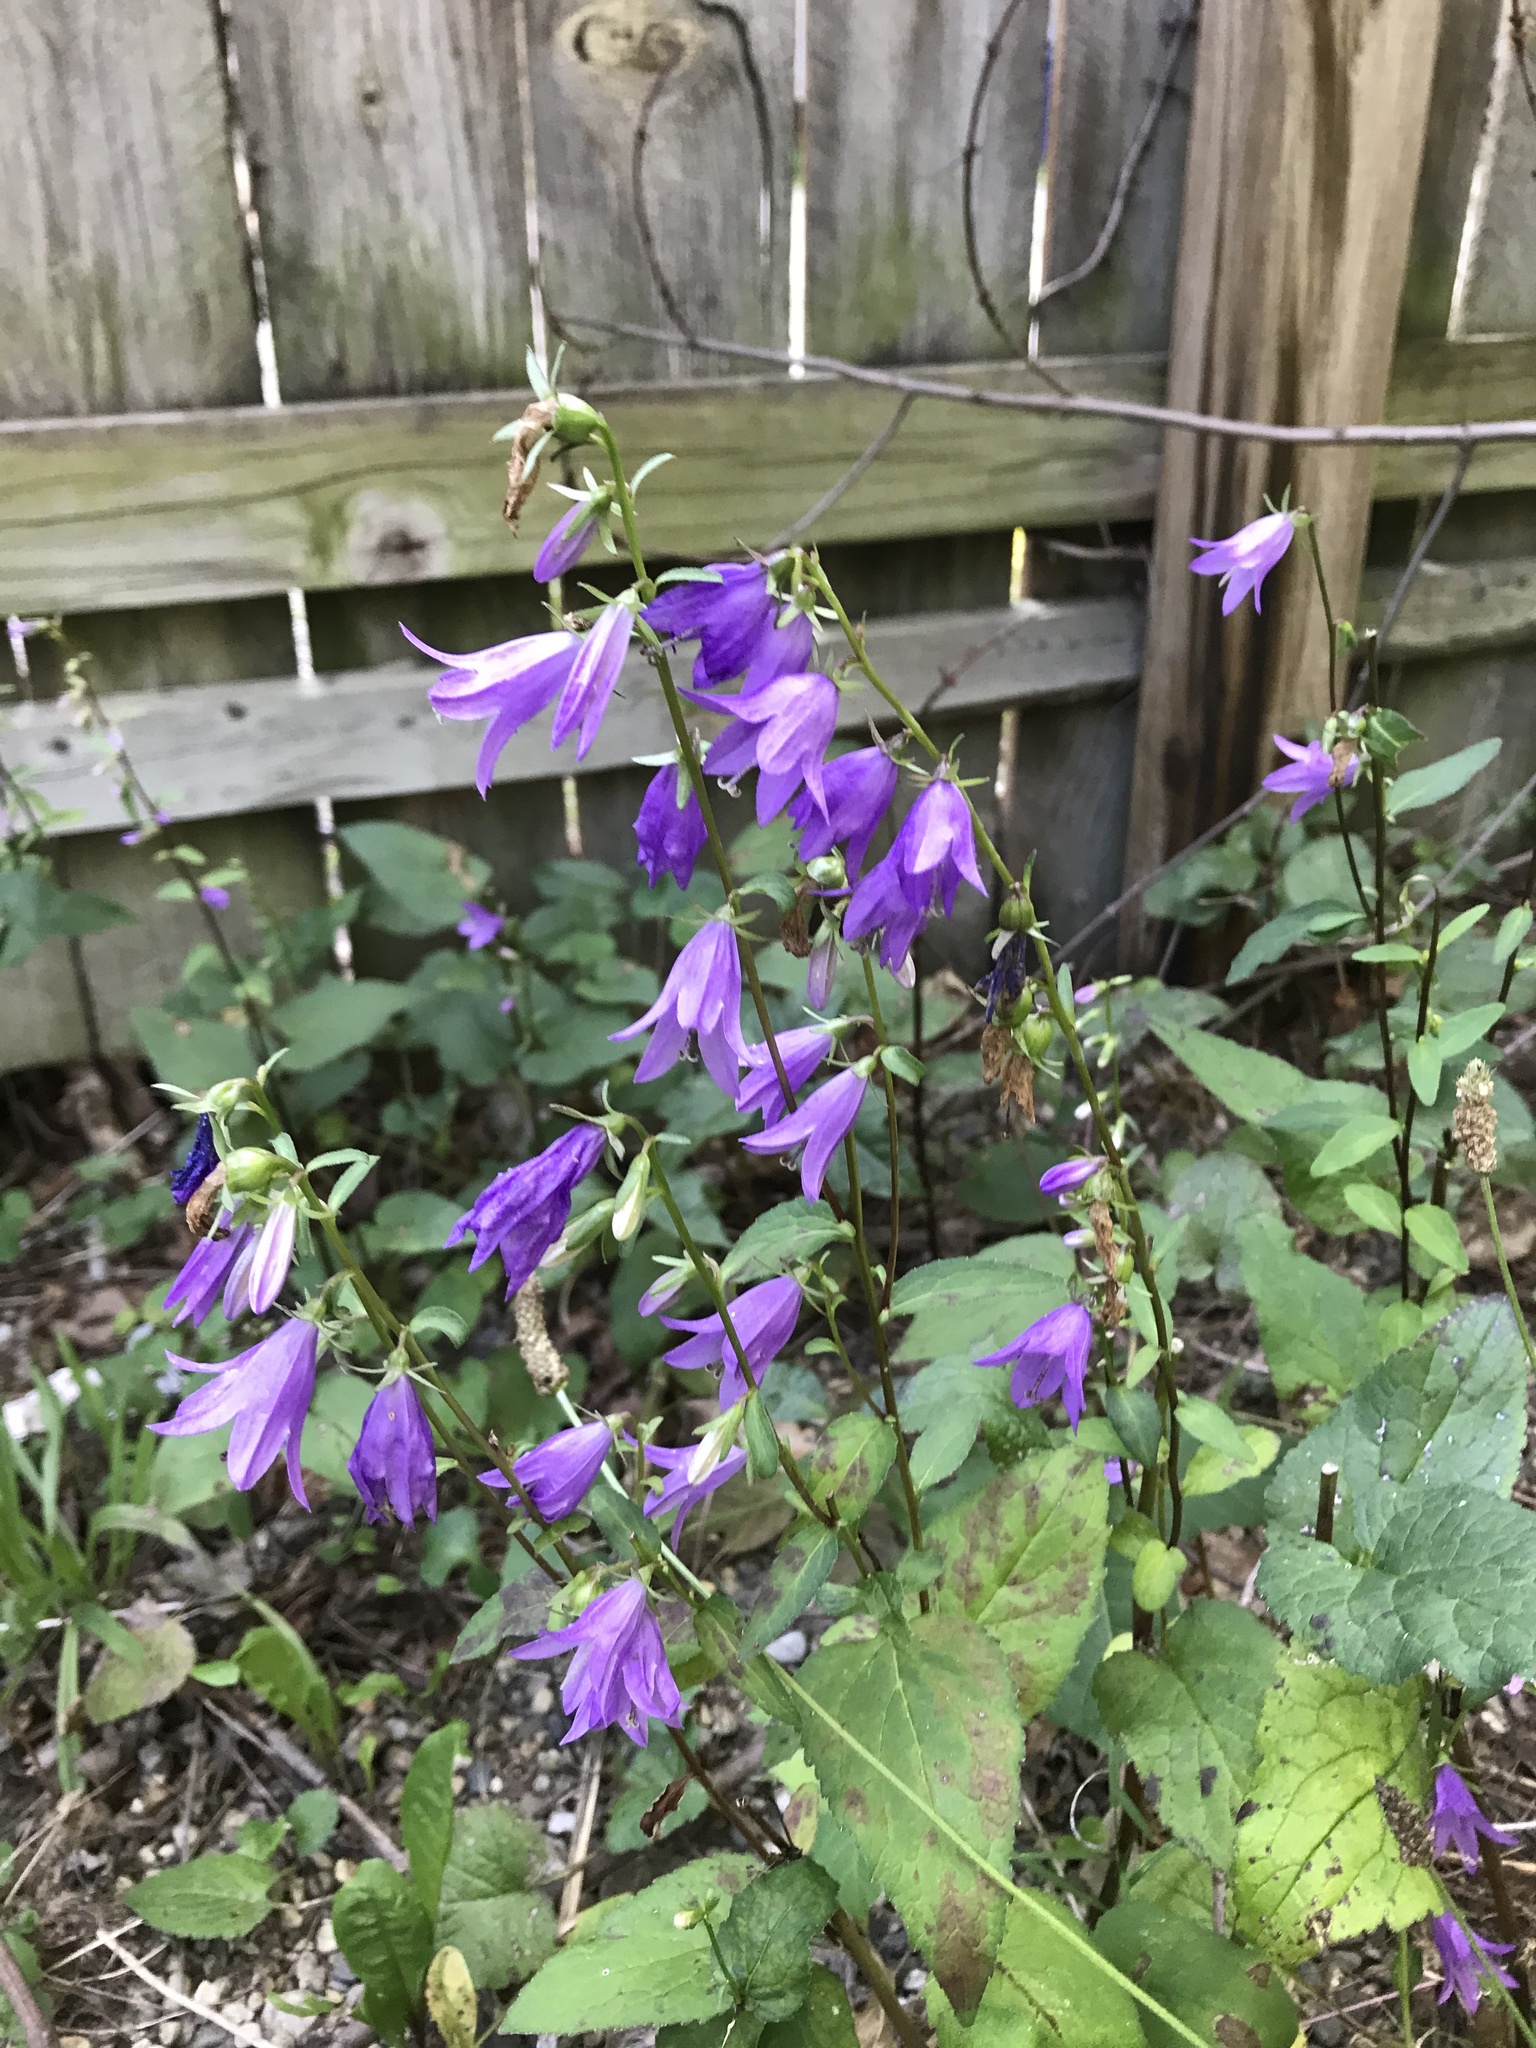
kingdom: Plantae
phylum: Tracheophyta
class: Magnoliopsida
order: Asterales
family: Campanulaceae
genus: Campanula
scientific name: Campanula rapunculoides
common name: Creeping bellflower
